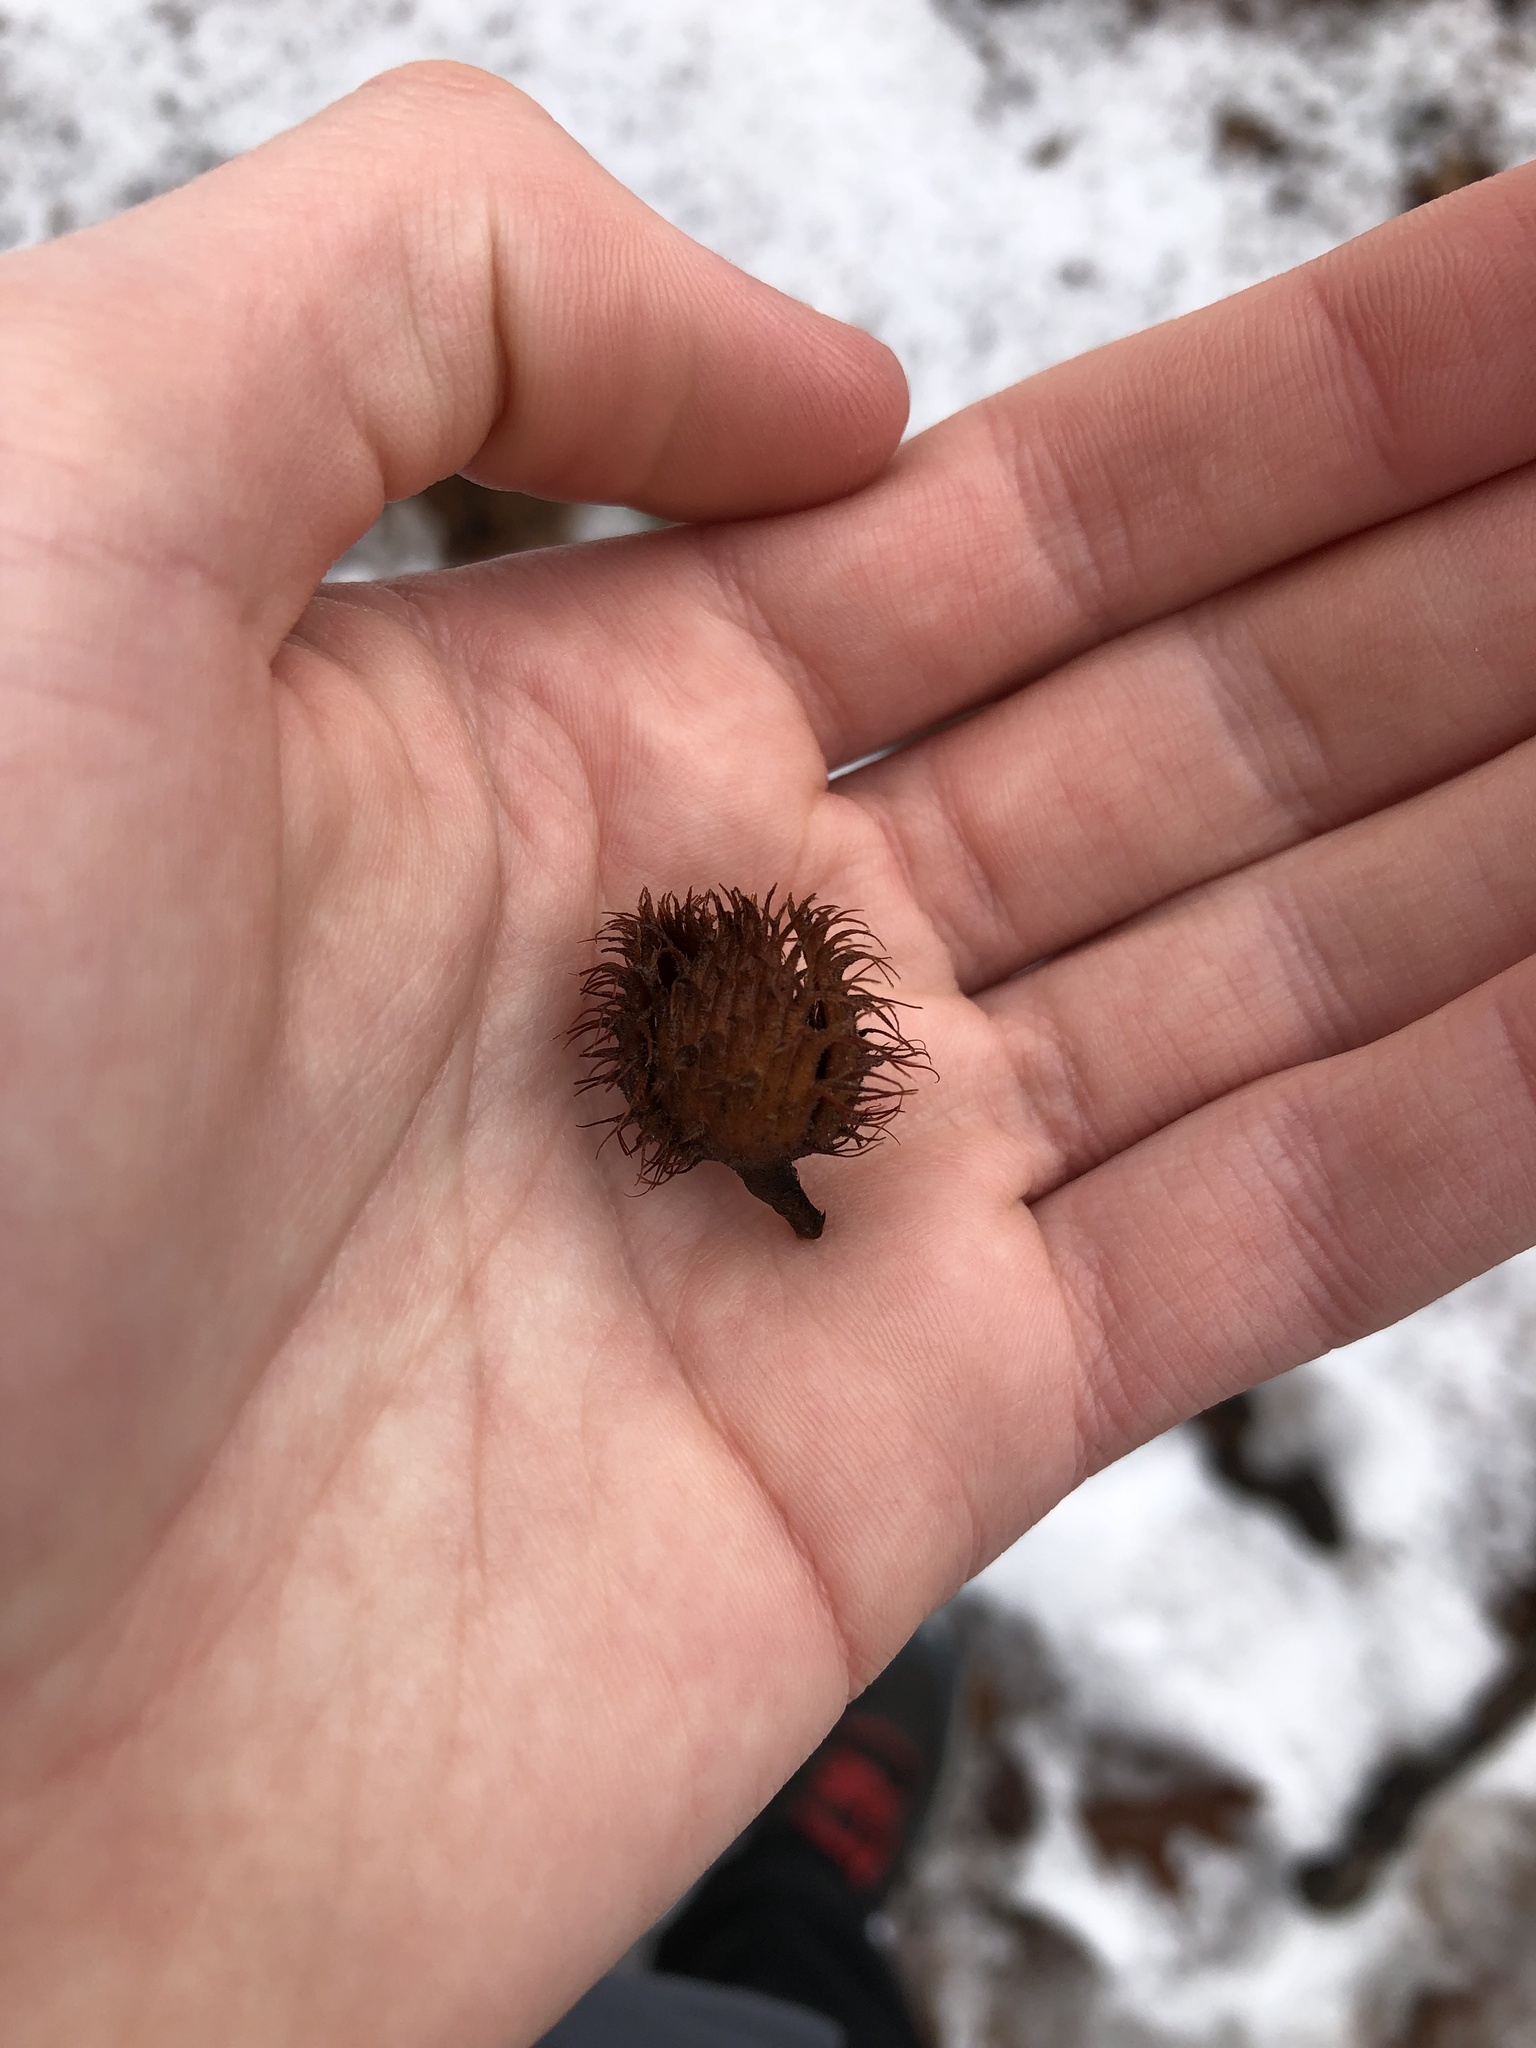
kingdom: Plantae
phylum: Tracheophyta
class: Magnoliopsida
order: Fagales
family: Fagaceae
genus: Fagus
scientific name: Fagus grandifolia
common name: American beech
